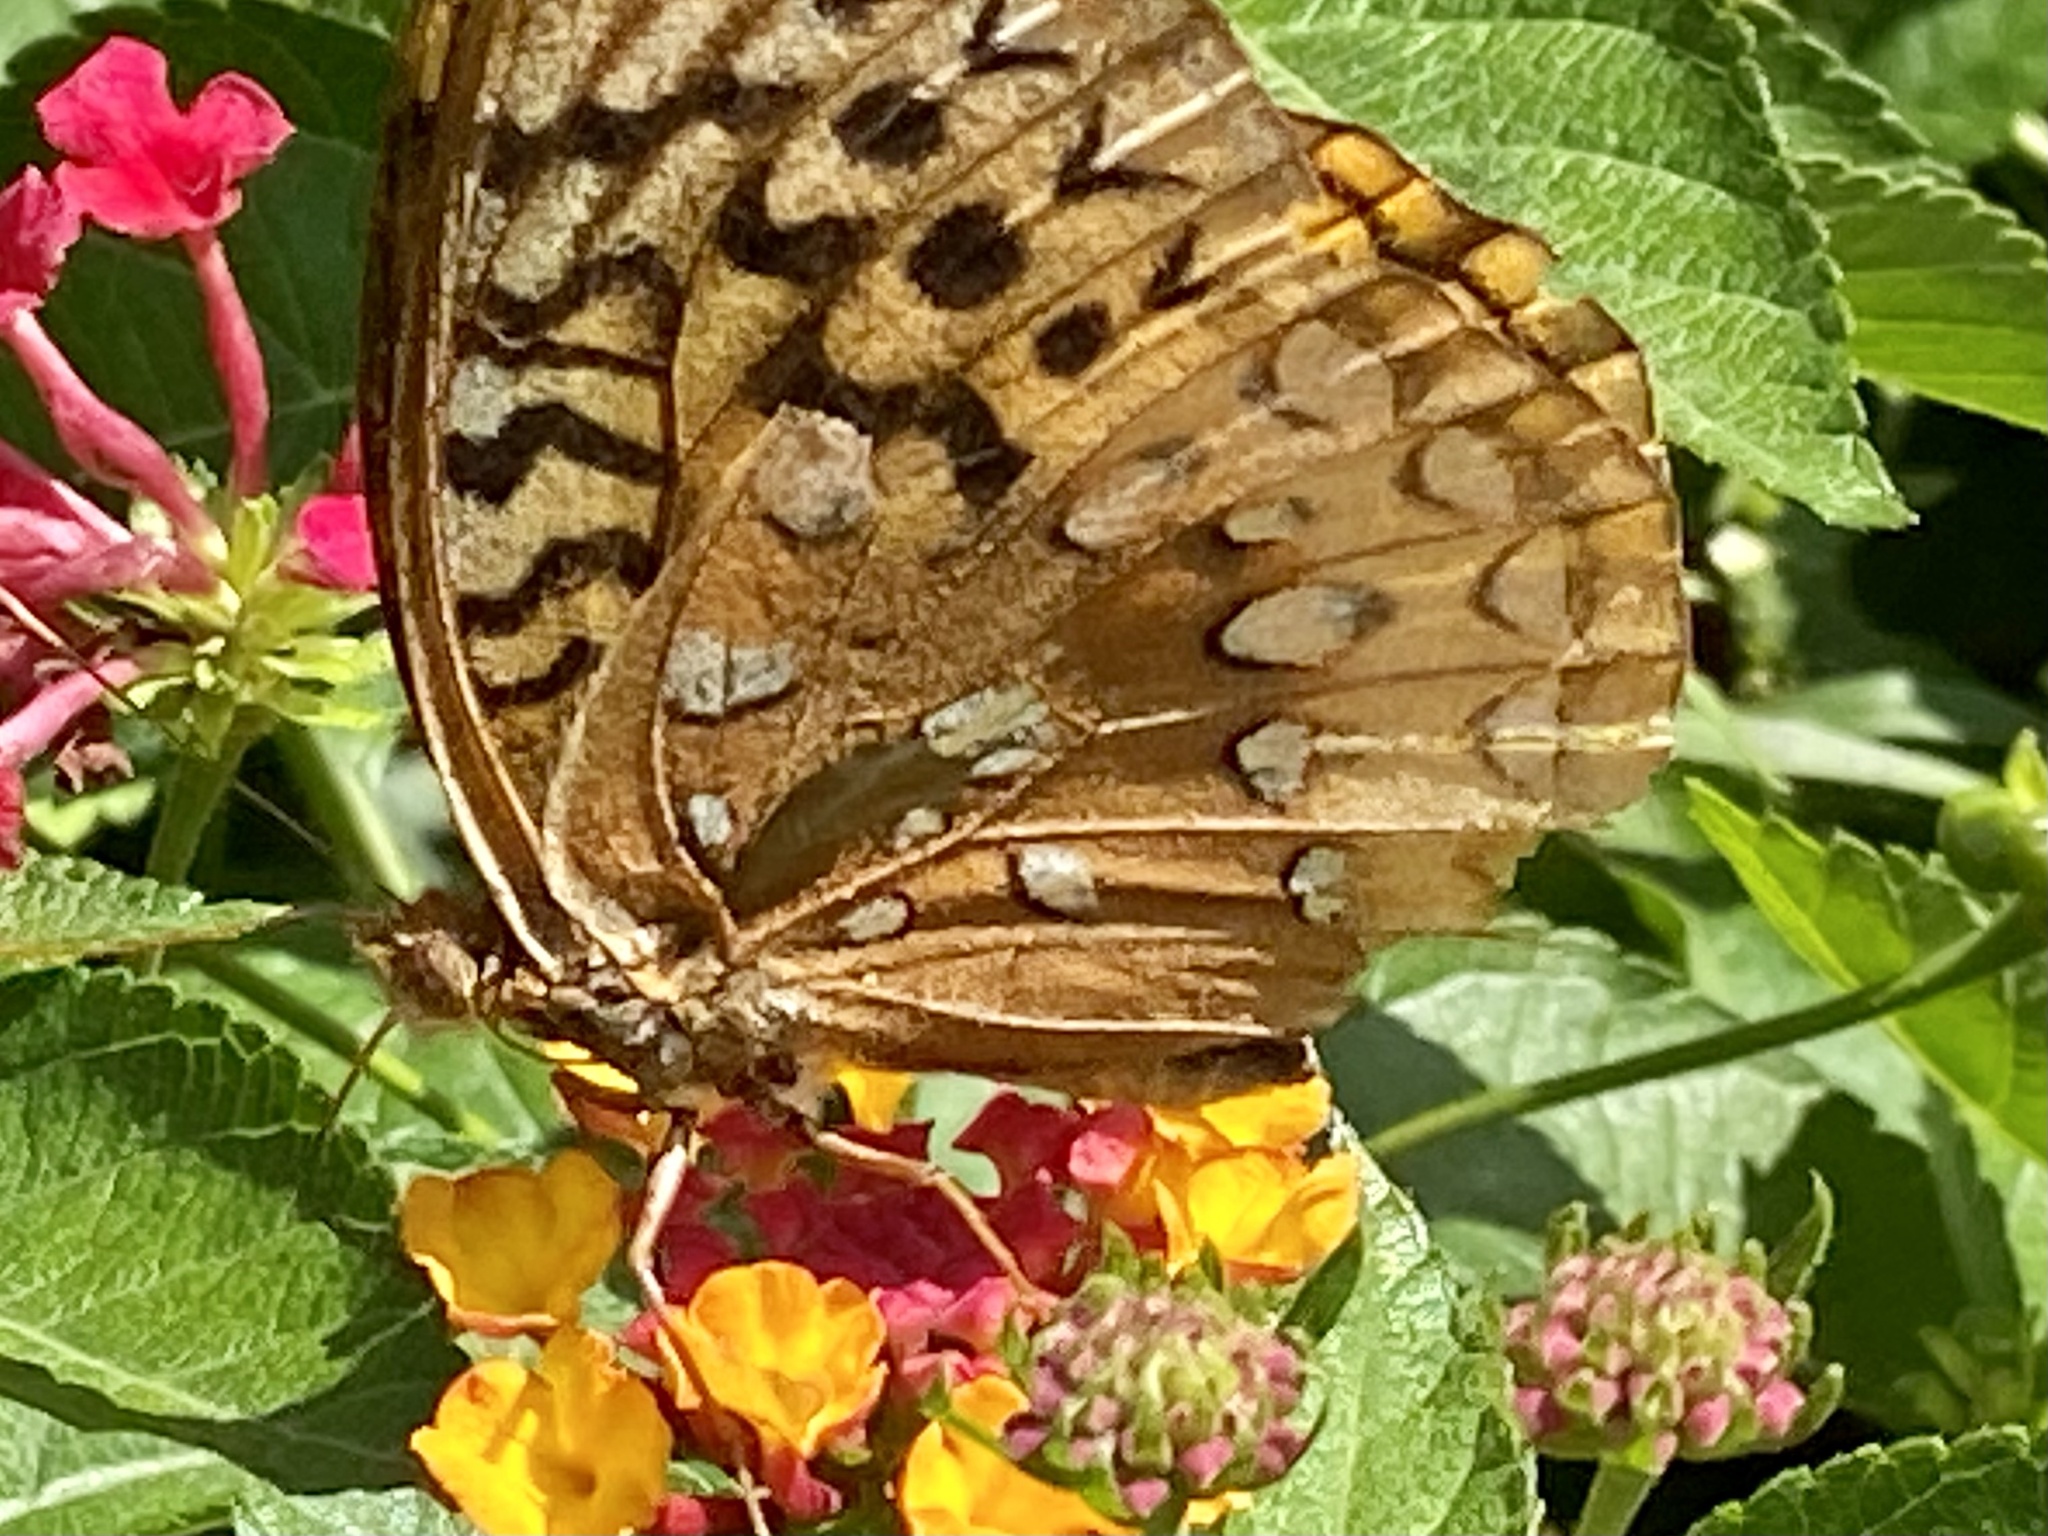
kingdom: Animalia
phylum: Arthropoda
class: Insecta
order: Lepidoptera
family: Nymphalidae
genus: Speyeria
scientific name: Speyeria cybele
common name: Great spangled fritillary
